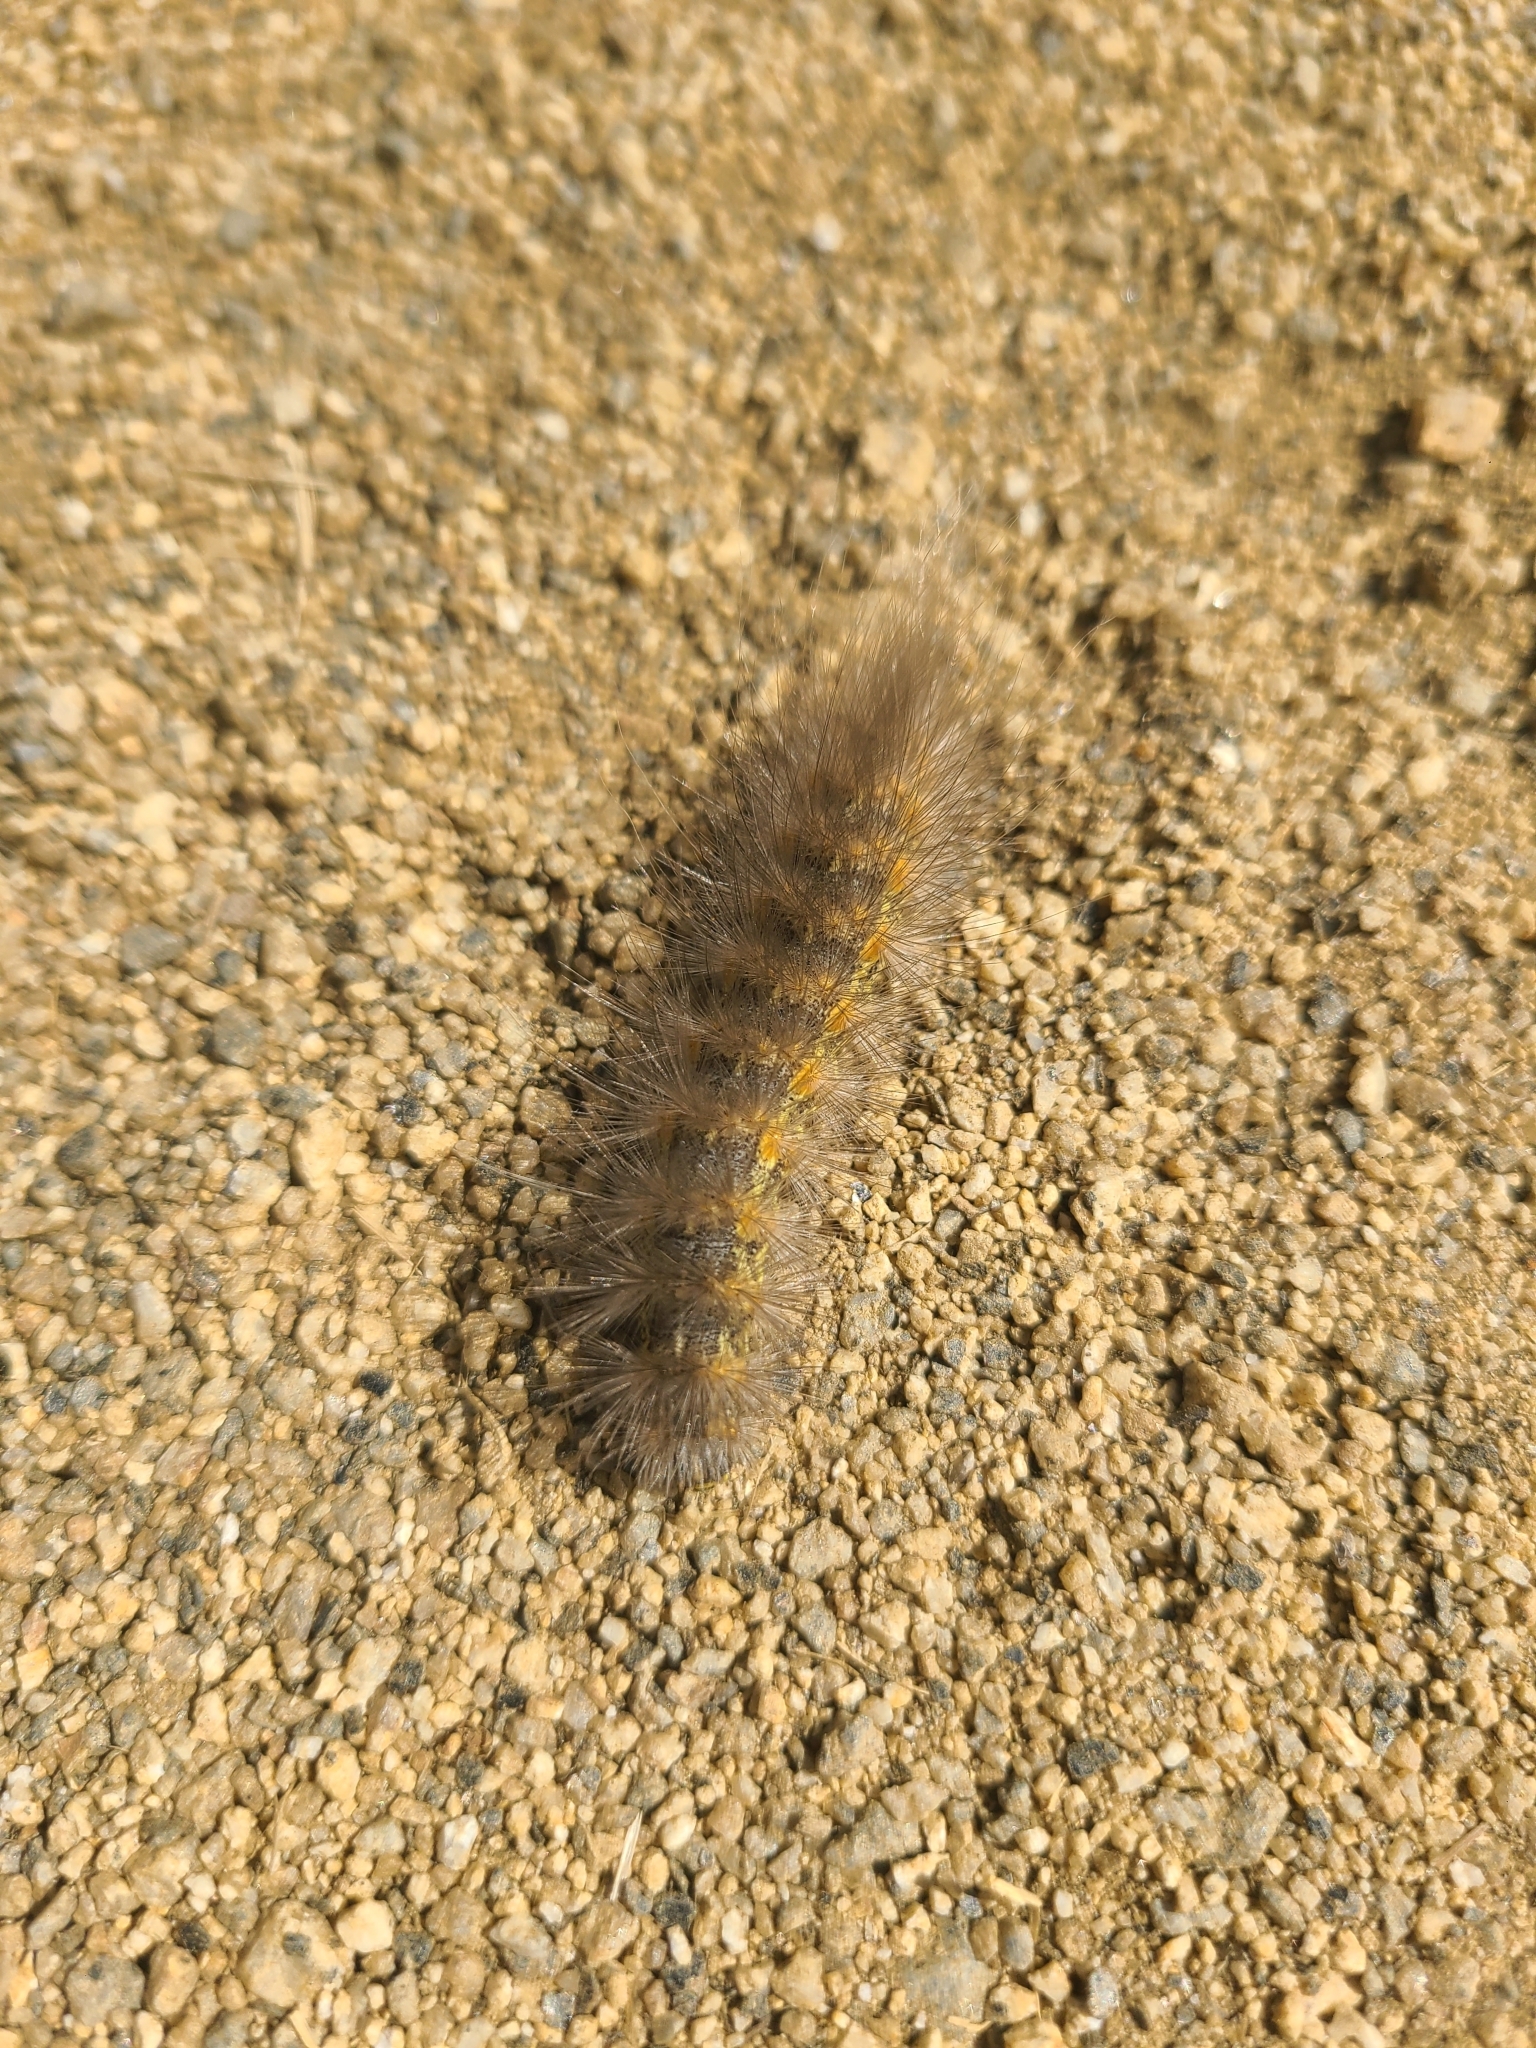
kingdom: Animalia
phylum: Arthropoda
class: Insecta
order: Lepidoptera
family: Erebidae
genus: Estigmene
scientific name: Estigmene acrea
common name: Salt marsh moth
